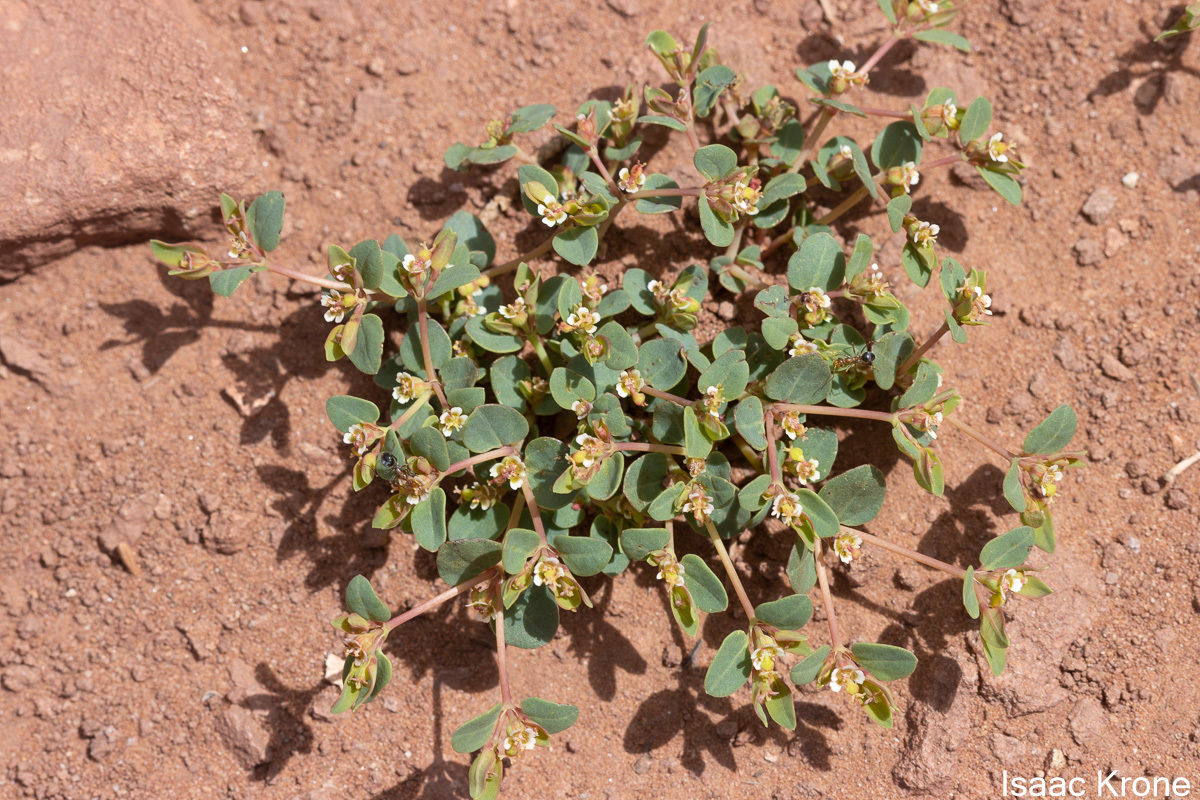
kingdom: Plantae
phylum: Tracheophyta
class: Magnoliopsida
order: Malpighiales
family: Euphorbiaceae
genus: Euphorbia
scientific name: Euphorbia fendleri
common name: Fendler's euphorbia
